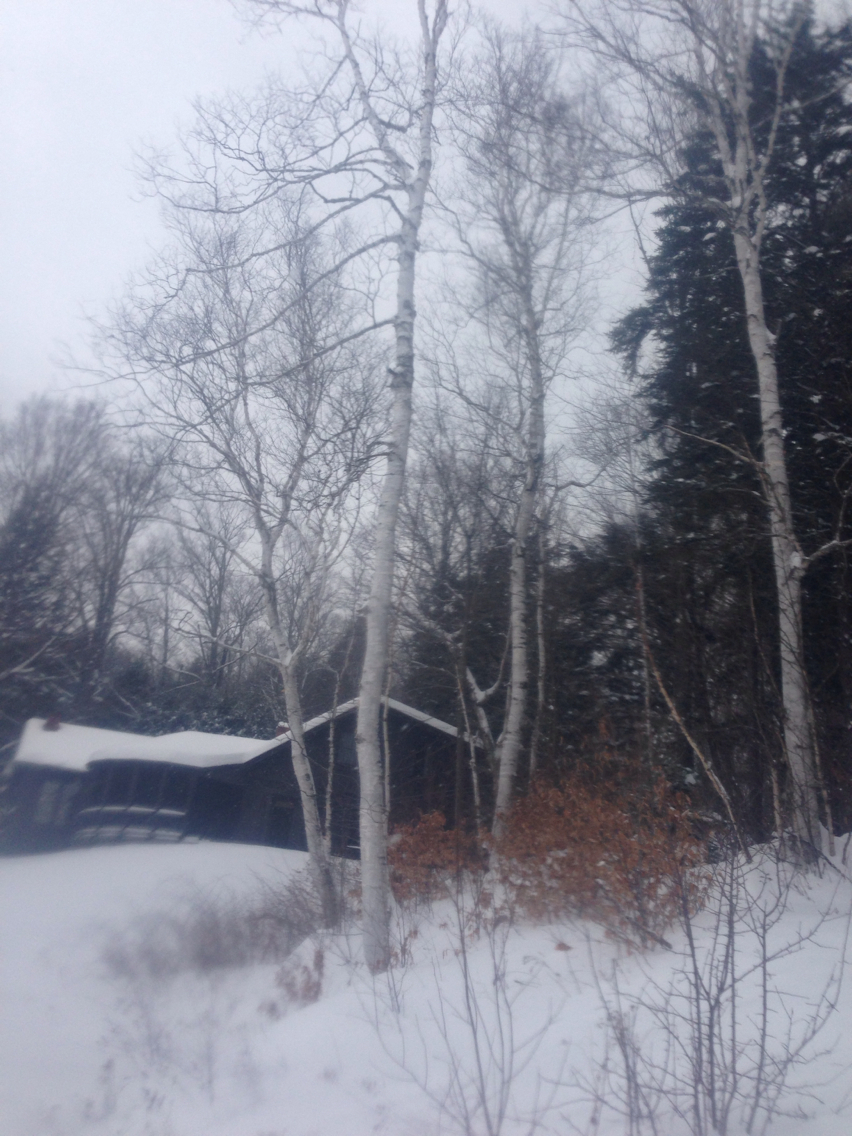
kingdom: Plantae
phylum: Tracheophyta
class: Magnoliopsida
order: Fagales
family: Betulaceae
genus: Betula
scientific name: Betula papyrifera
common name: Paper birch
